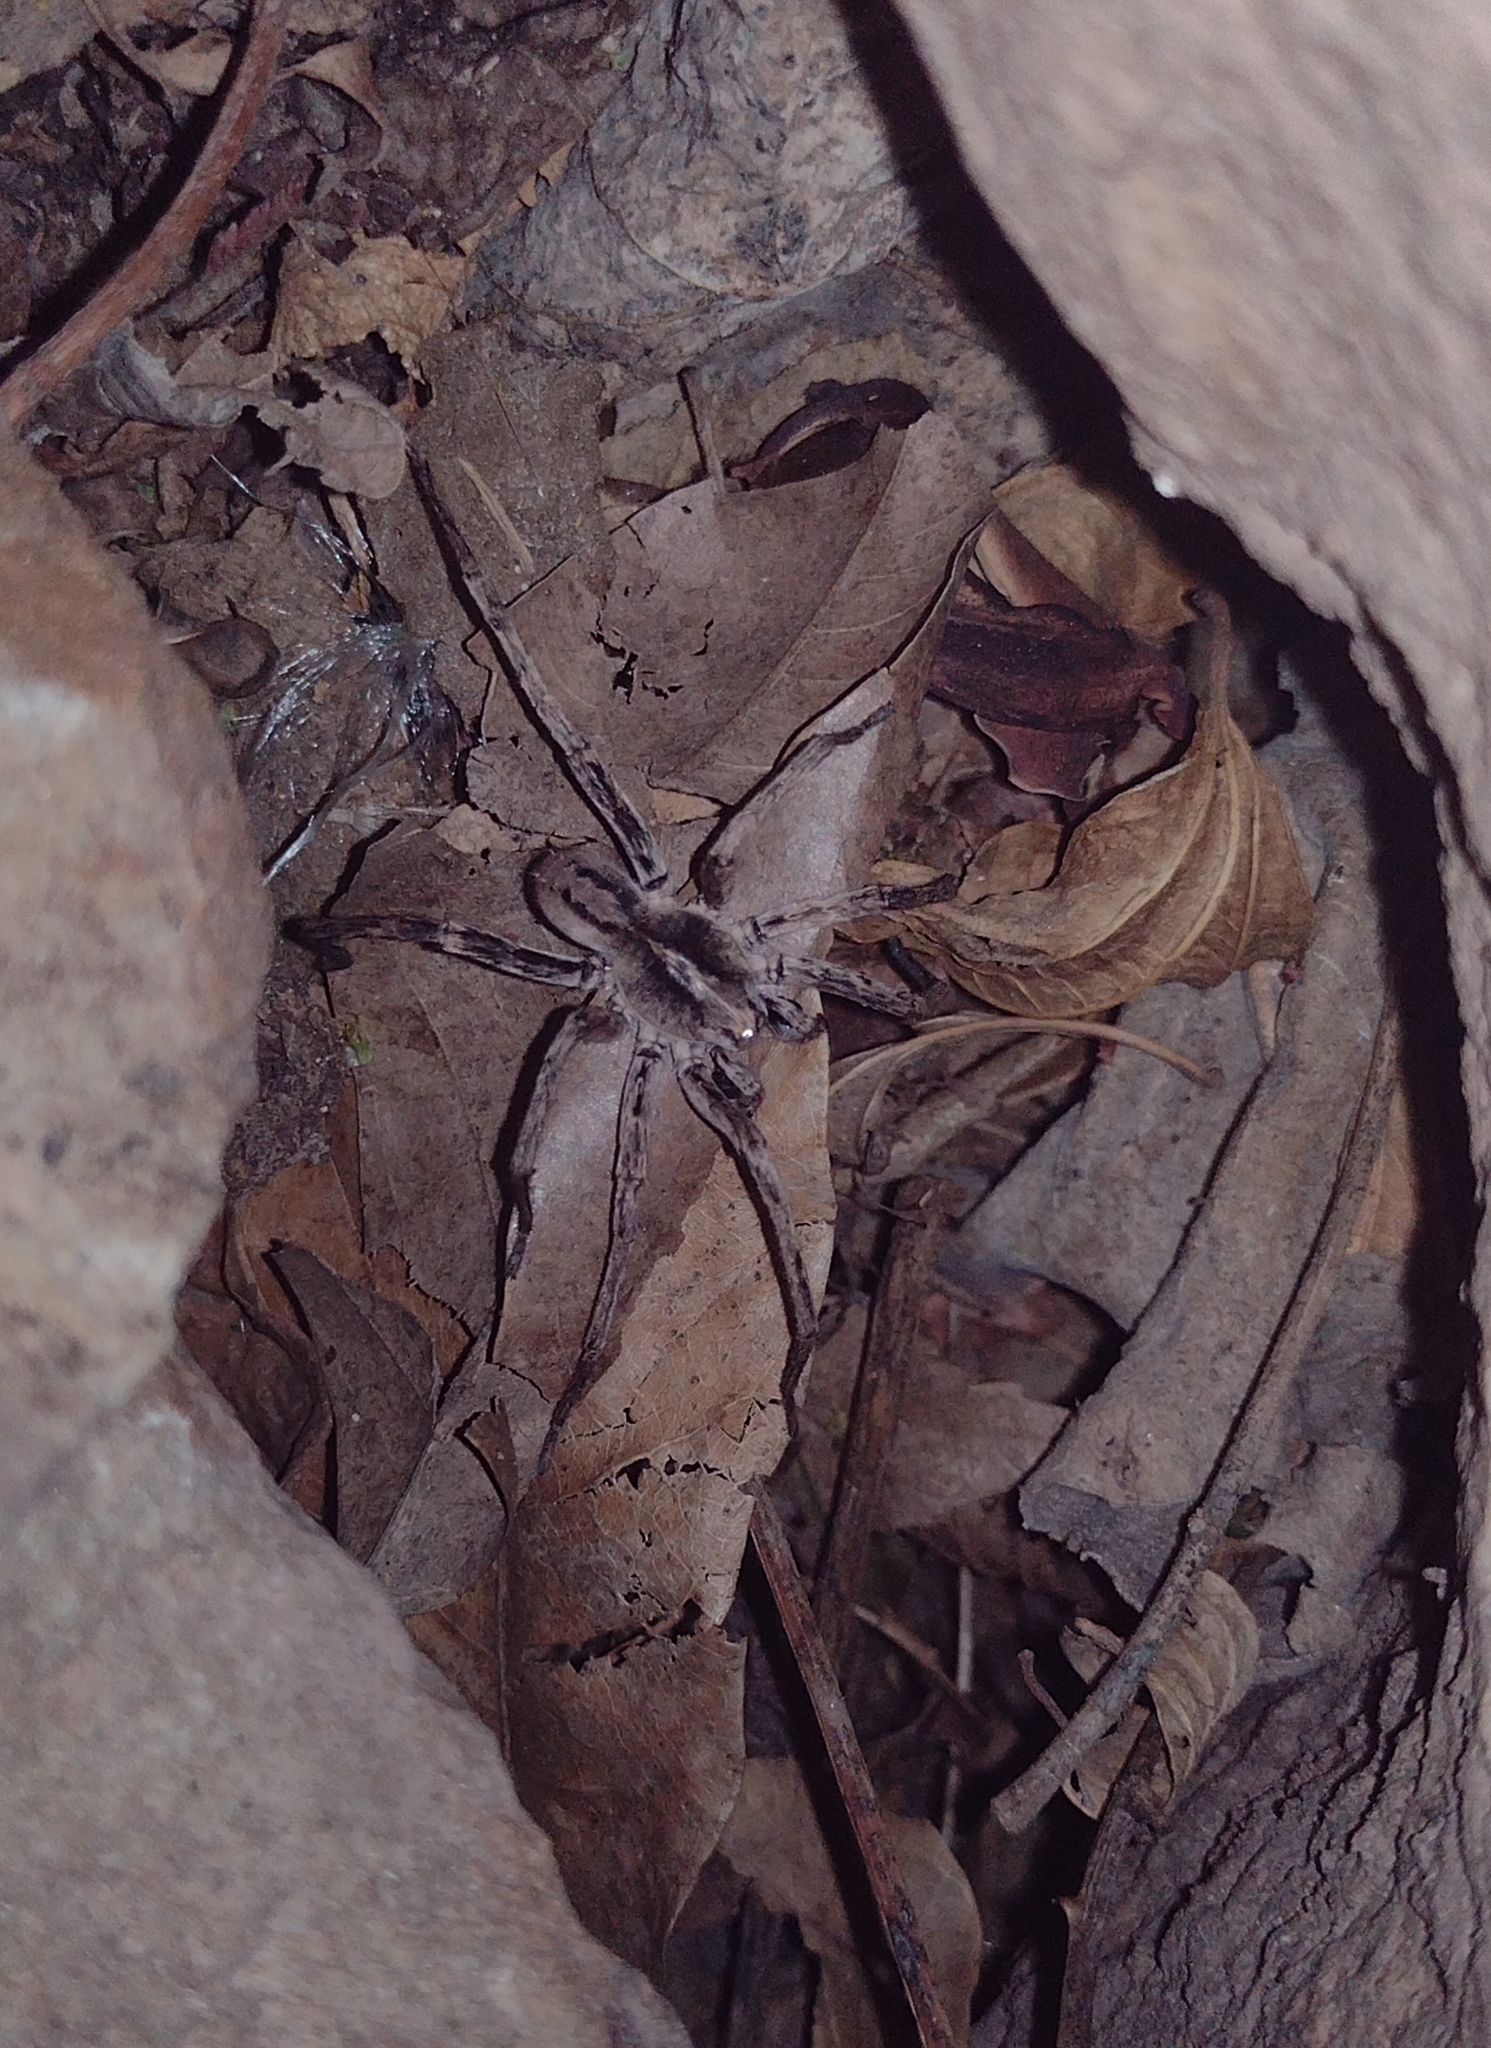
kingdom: Animalia
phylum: Arthropoda
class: Arachnida
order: Araneae
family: Ctenidae
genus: Parabatinga
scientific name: Parabatinga brevipes
